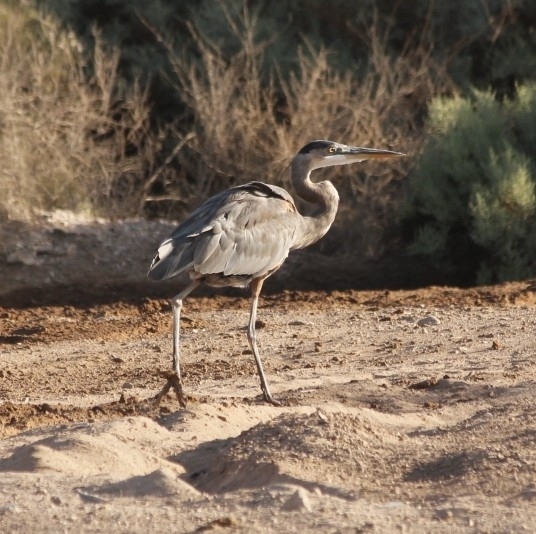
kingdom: Animalia
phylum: Chordata
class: Aves
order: Pelecaniformes
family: Ardeidae
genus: Ardea
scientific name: Ardea herodias
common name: Great blue heron
